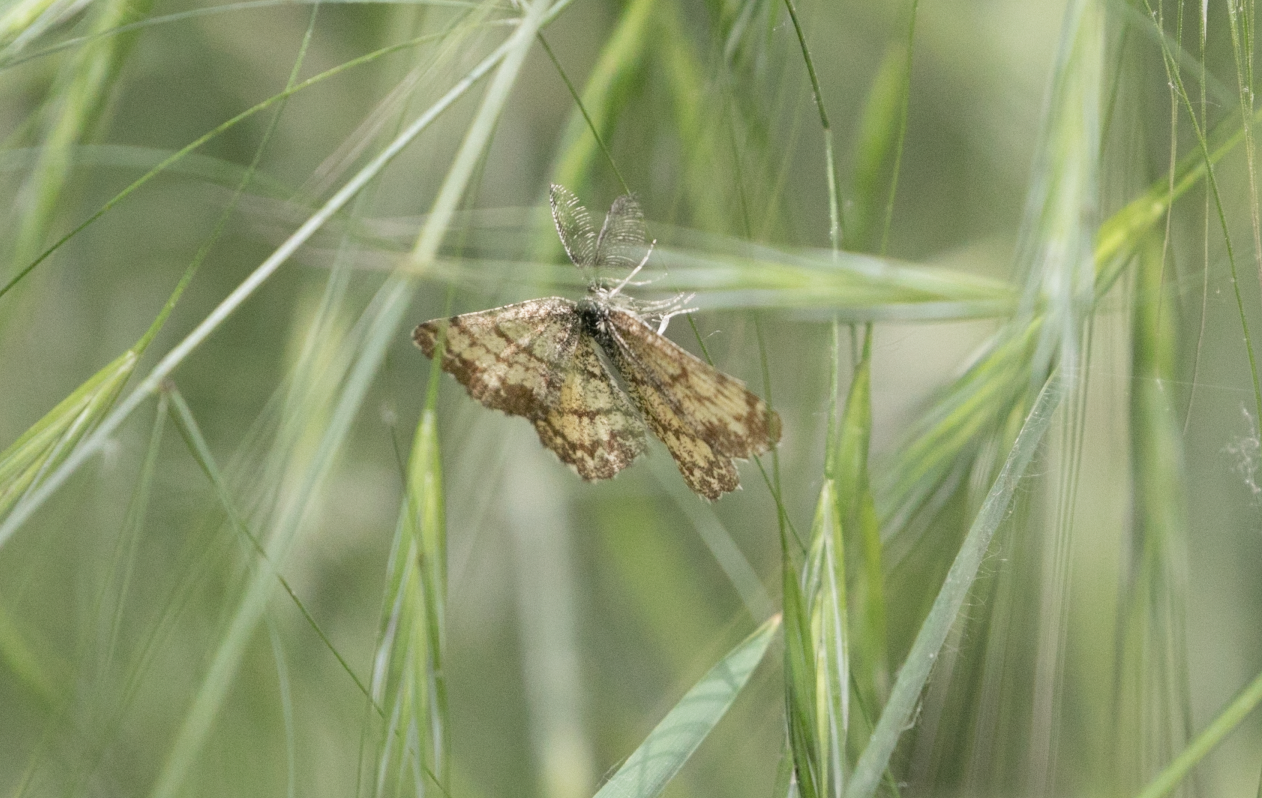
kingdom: Animalia
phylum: Arthropoda
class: Insecta
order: Lepidoptera
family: Geometridae
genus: Ematurga
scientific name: Ematurga atomaria
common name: Common heath
